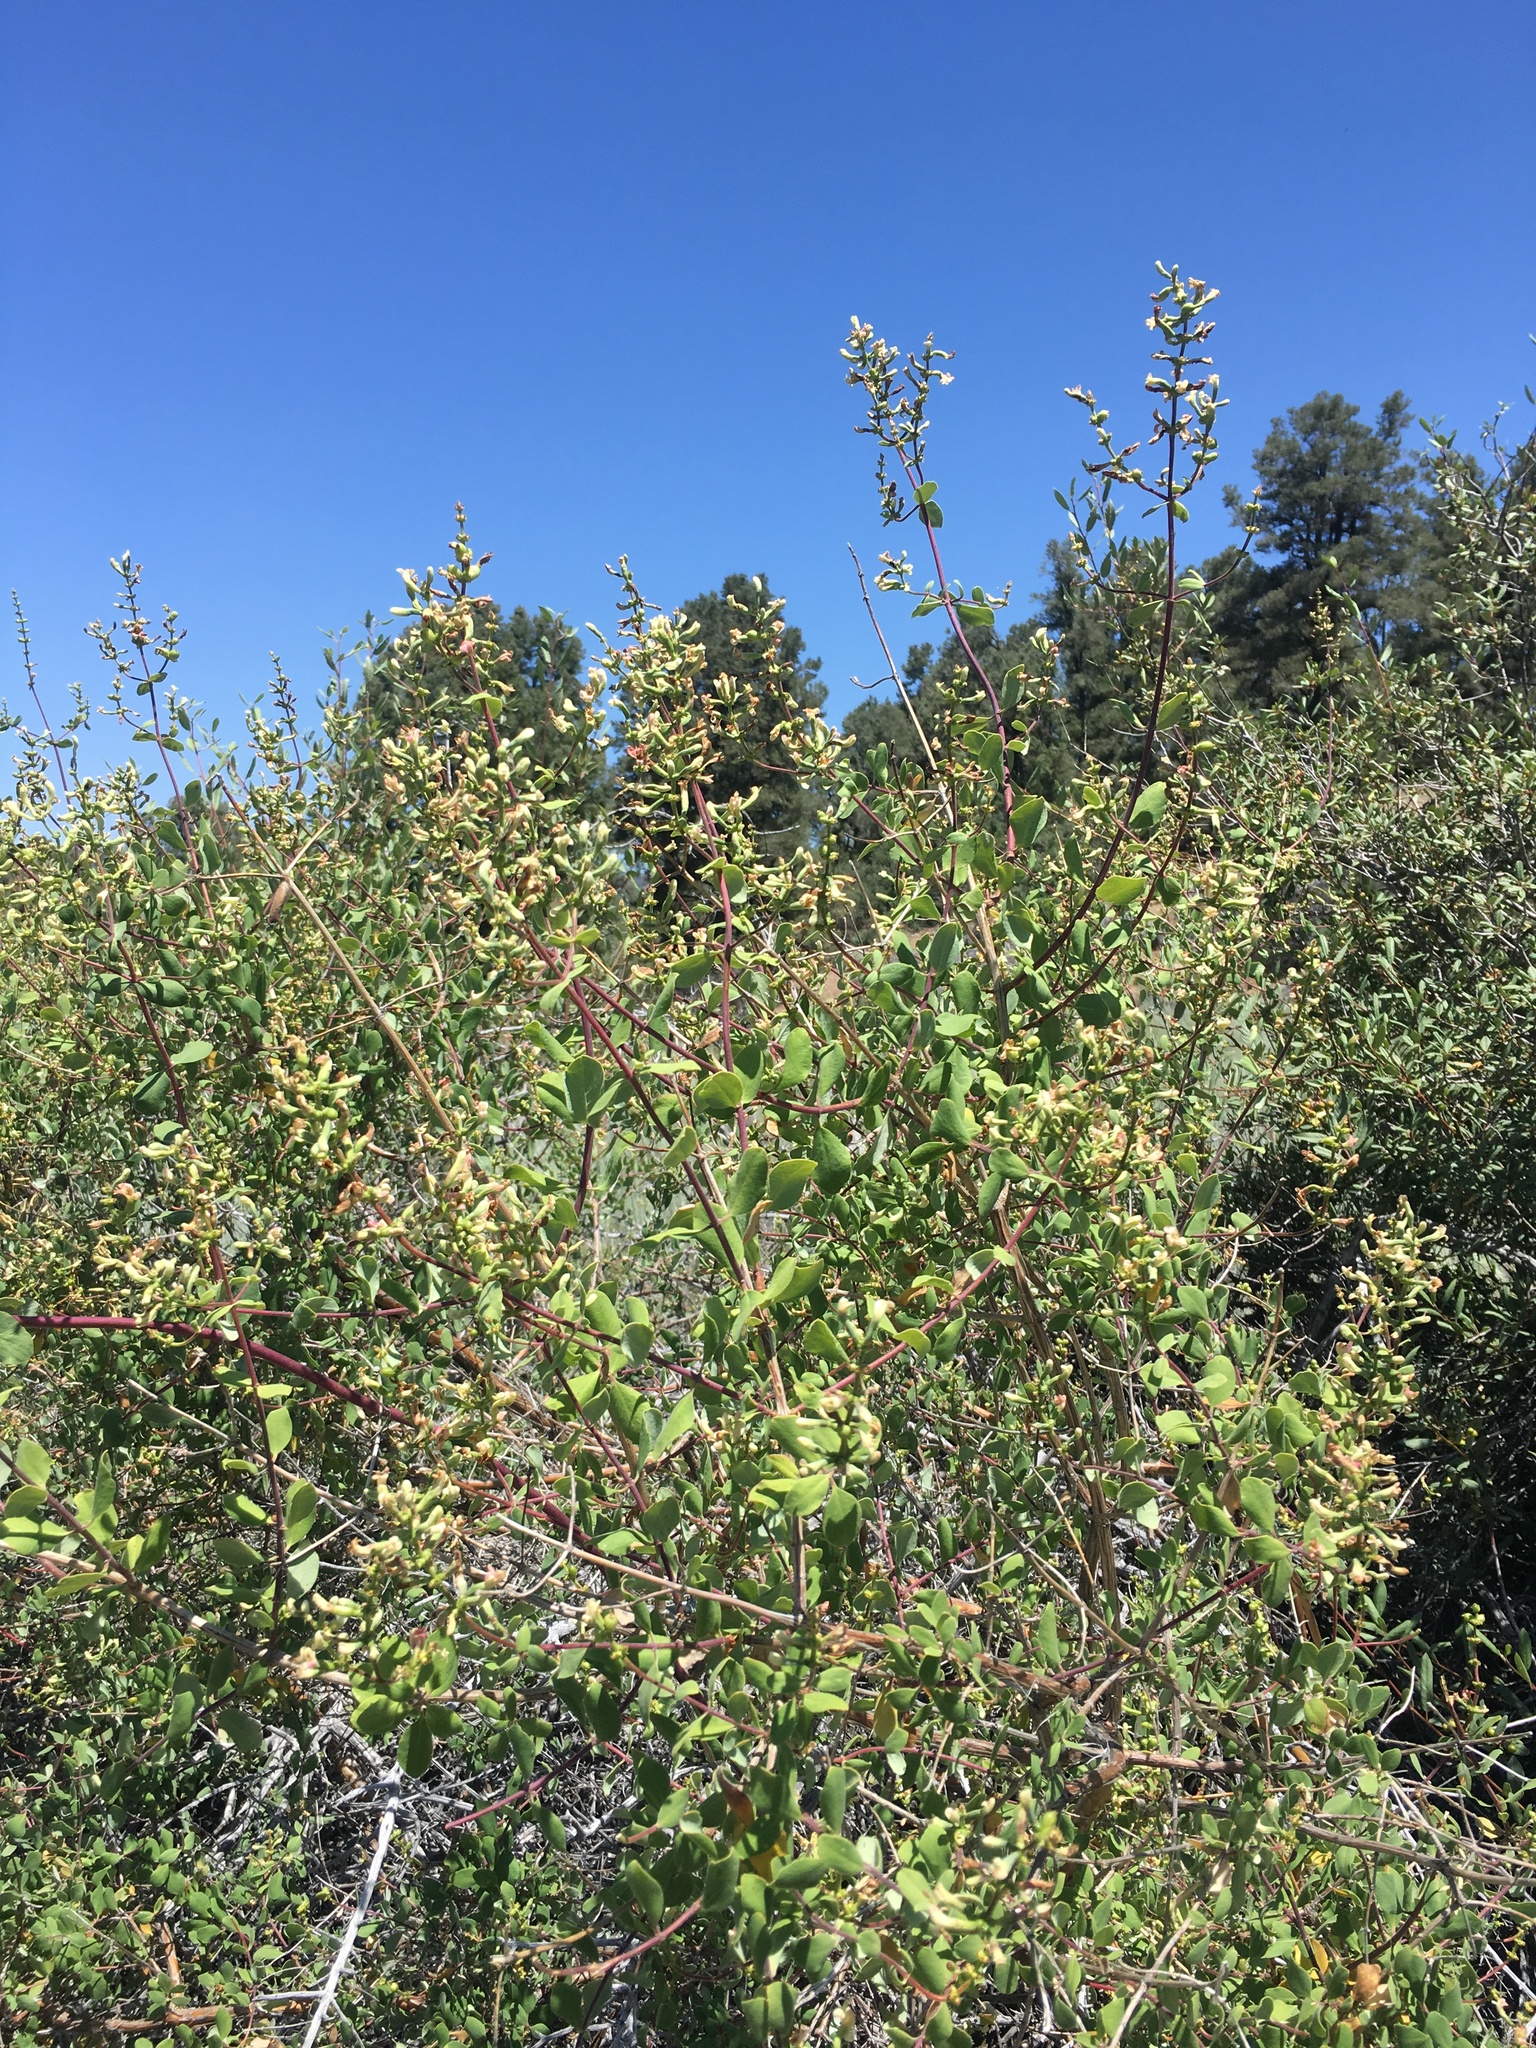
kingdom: Plantae
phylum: Tracheophyta
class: Magnoliopsida
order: Dipsacales
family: Caprifoliaceae
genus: Lonicera
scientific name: Lonicera subspicata
